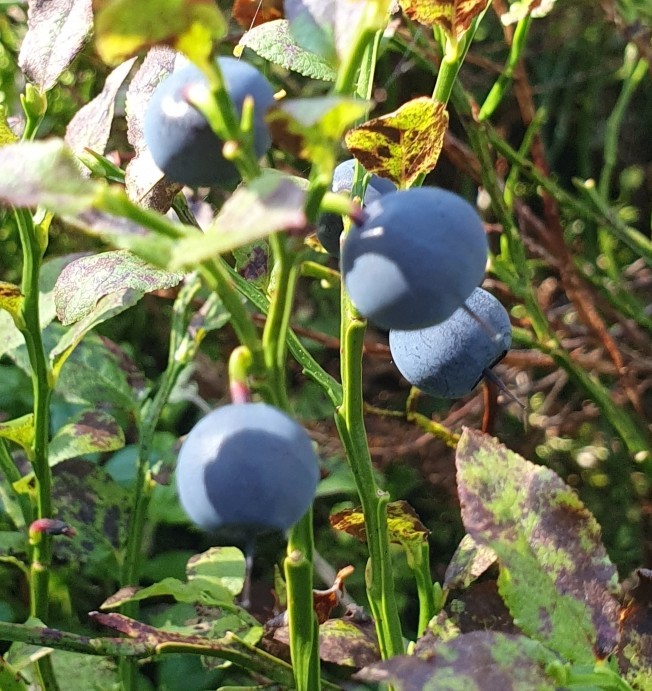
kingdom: Plantae
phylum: Tracheophyta
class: Magnoliopsida
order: Ericales
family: Ericaceae
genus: Vaccinium
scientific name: Vaccinium myrtillus
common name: Bilberry
